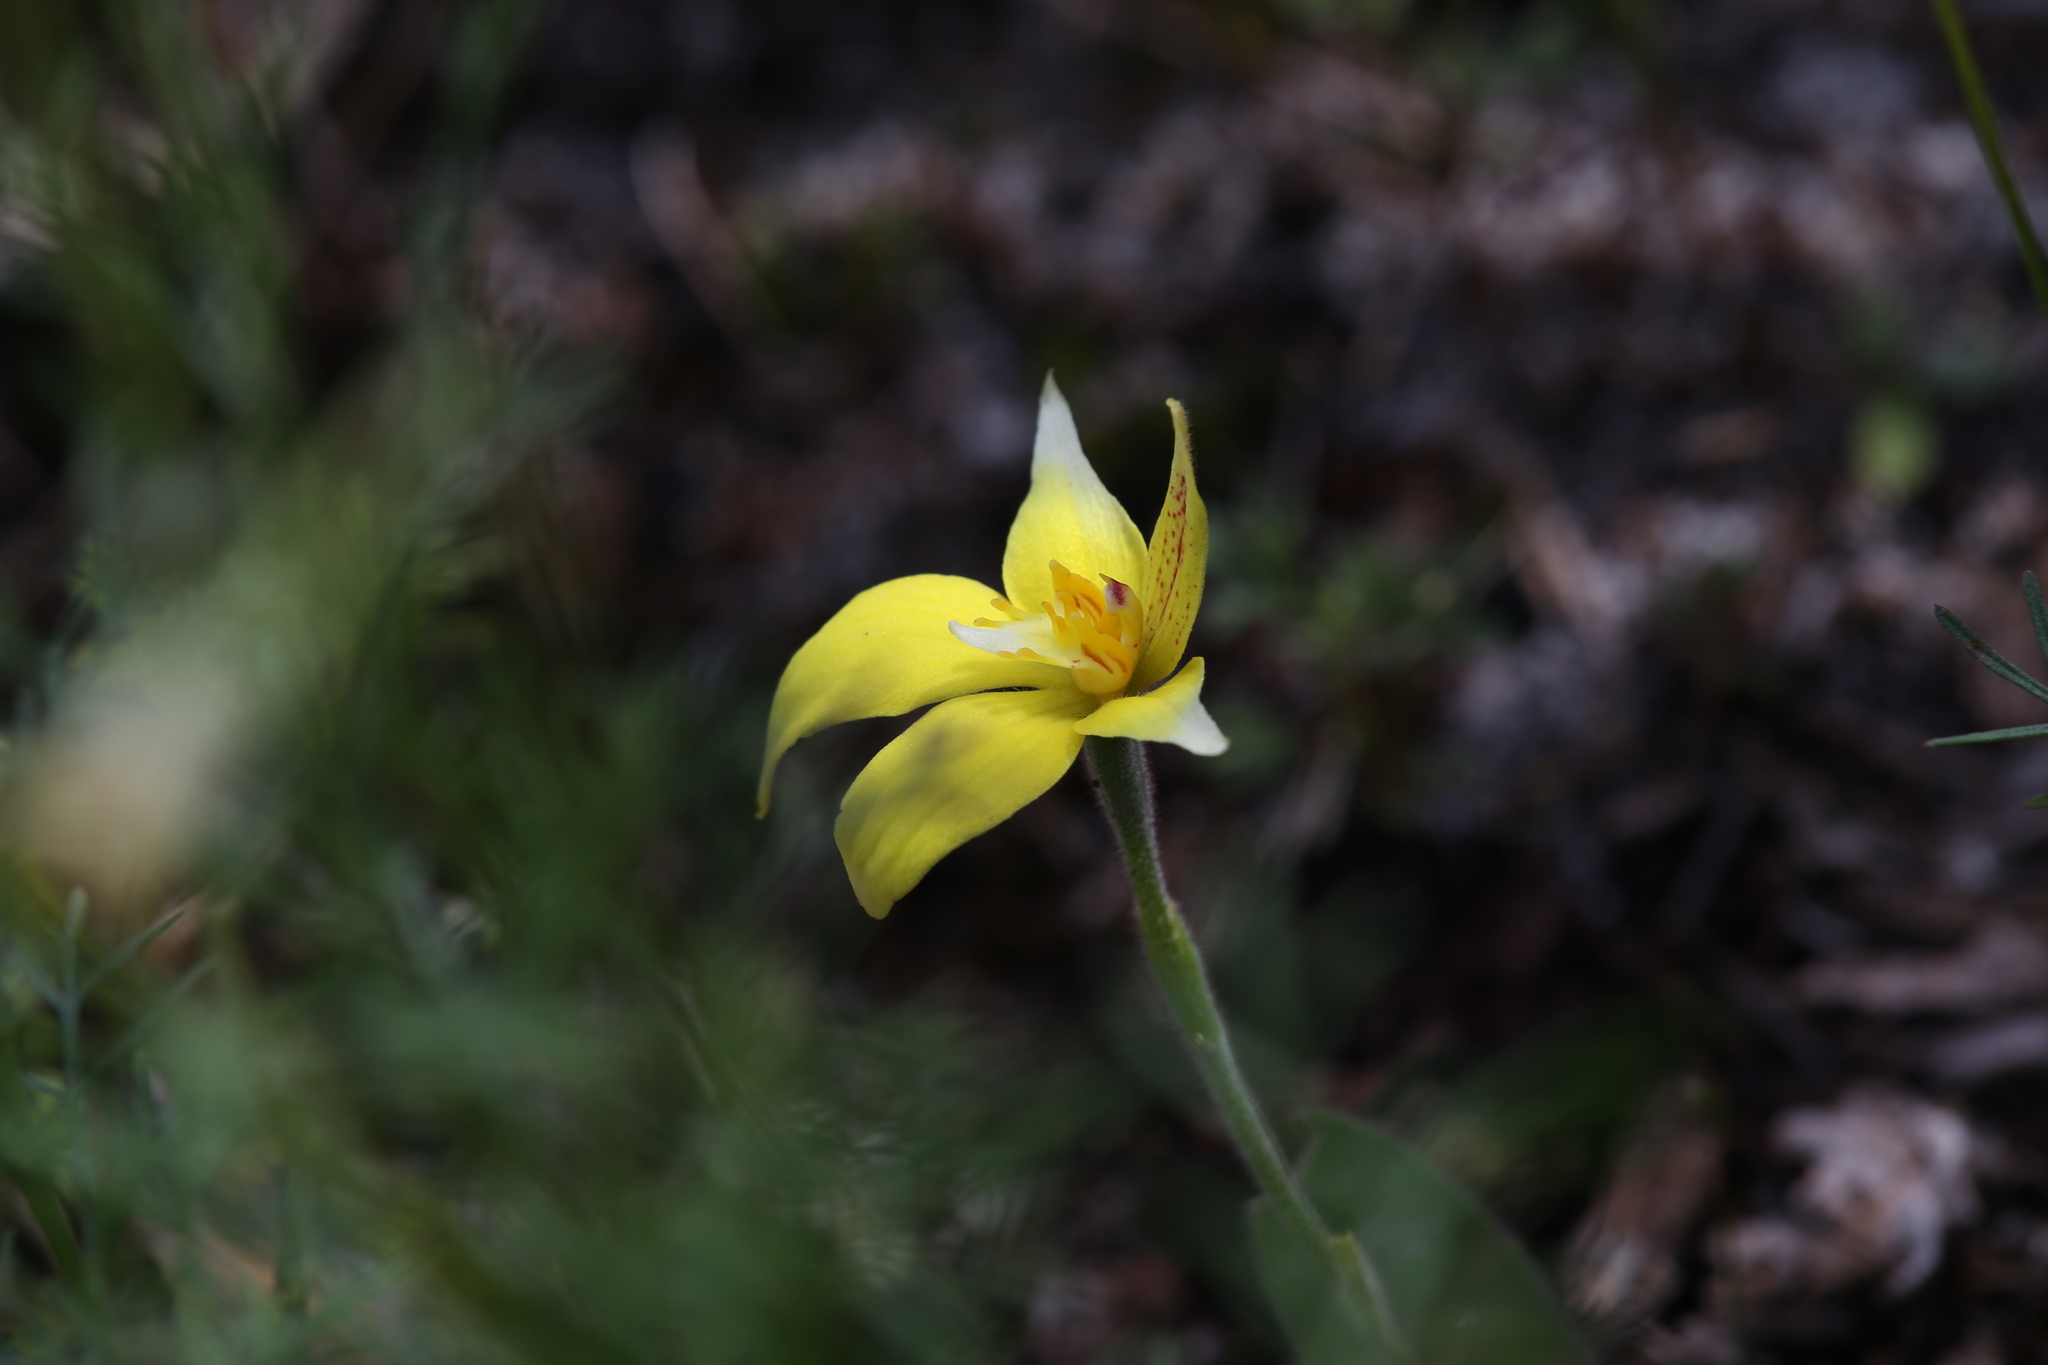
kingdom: Plantae
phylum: Tracheophyta
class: Liliopsida
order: Asparagales
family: Orchidaceae
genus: Caladenia
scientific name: Caladenia flava
